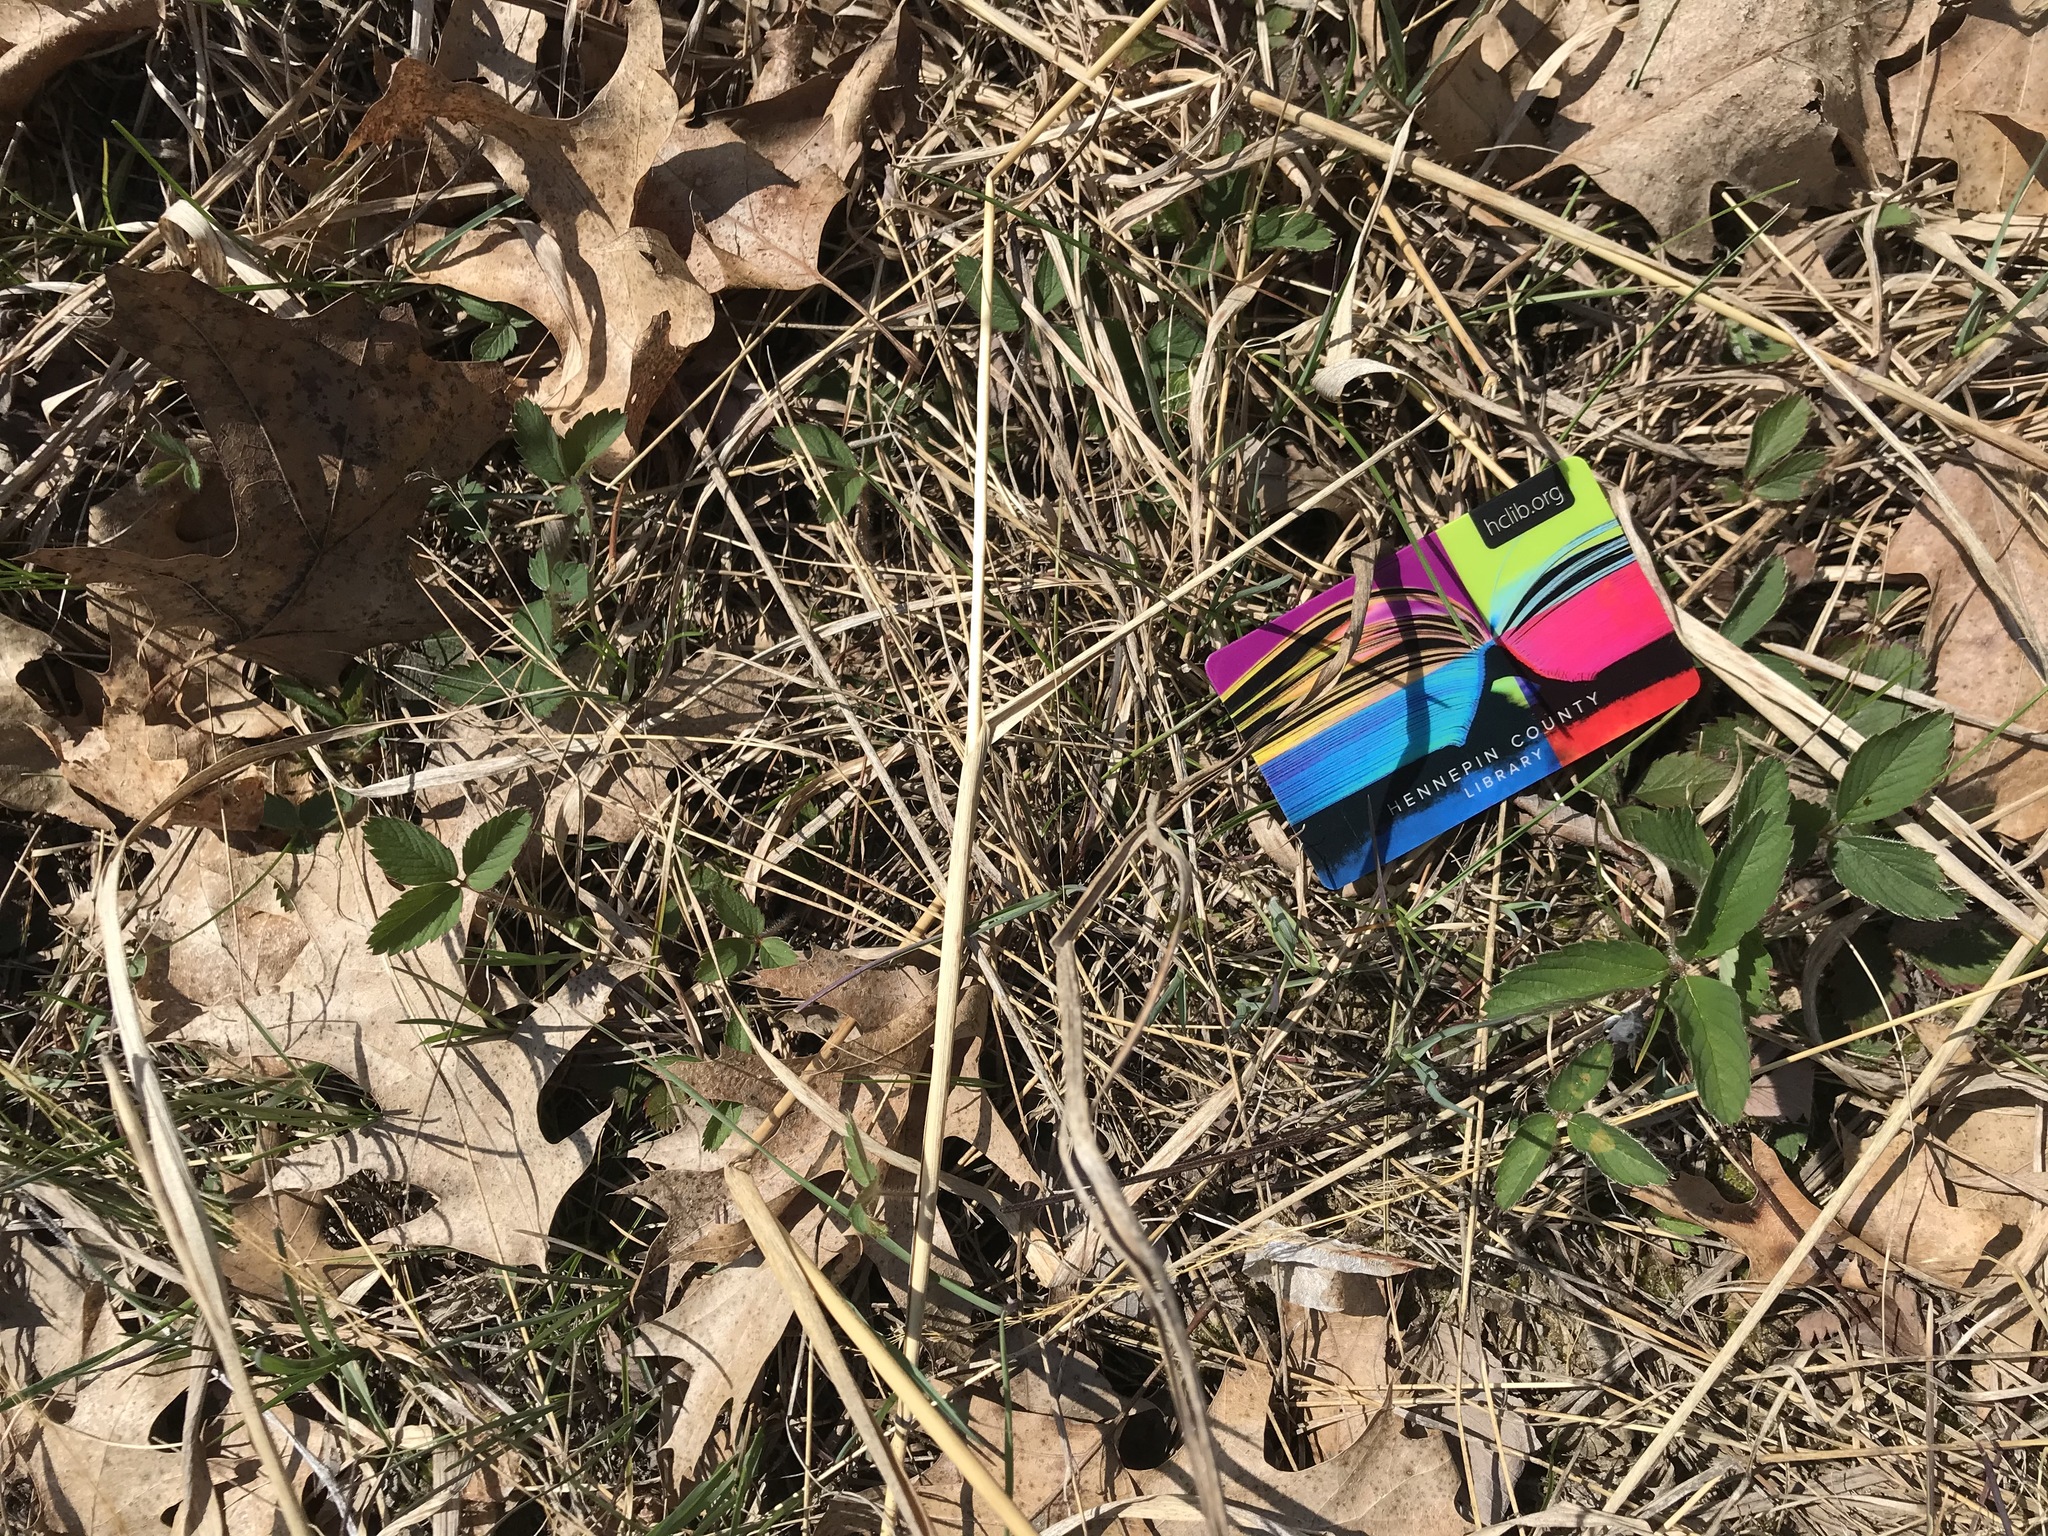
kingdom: Plantae
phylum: Tracheophyta
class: Magnoliopsida
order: Rosales
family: Rosaceae
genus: Fragaria
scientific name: Fragaria virginiana
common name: Thickleaved wild strawberry
